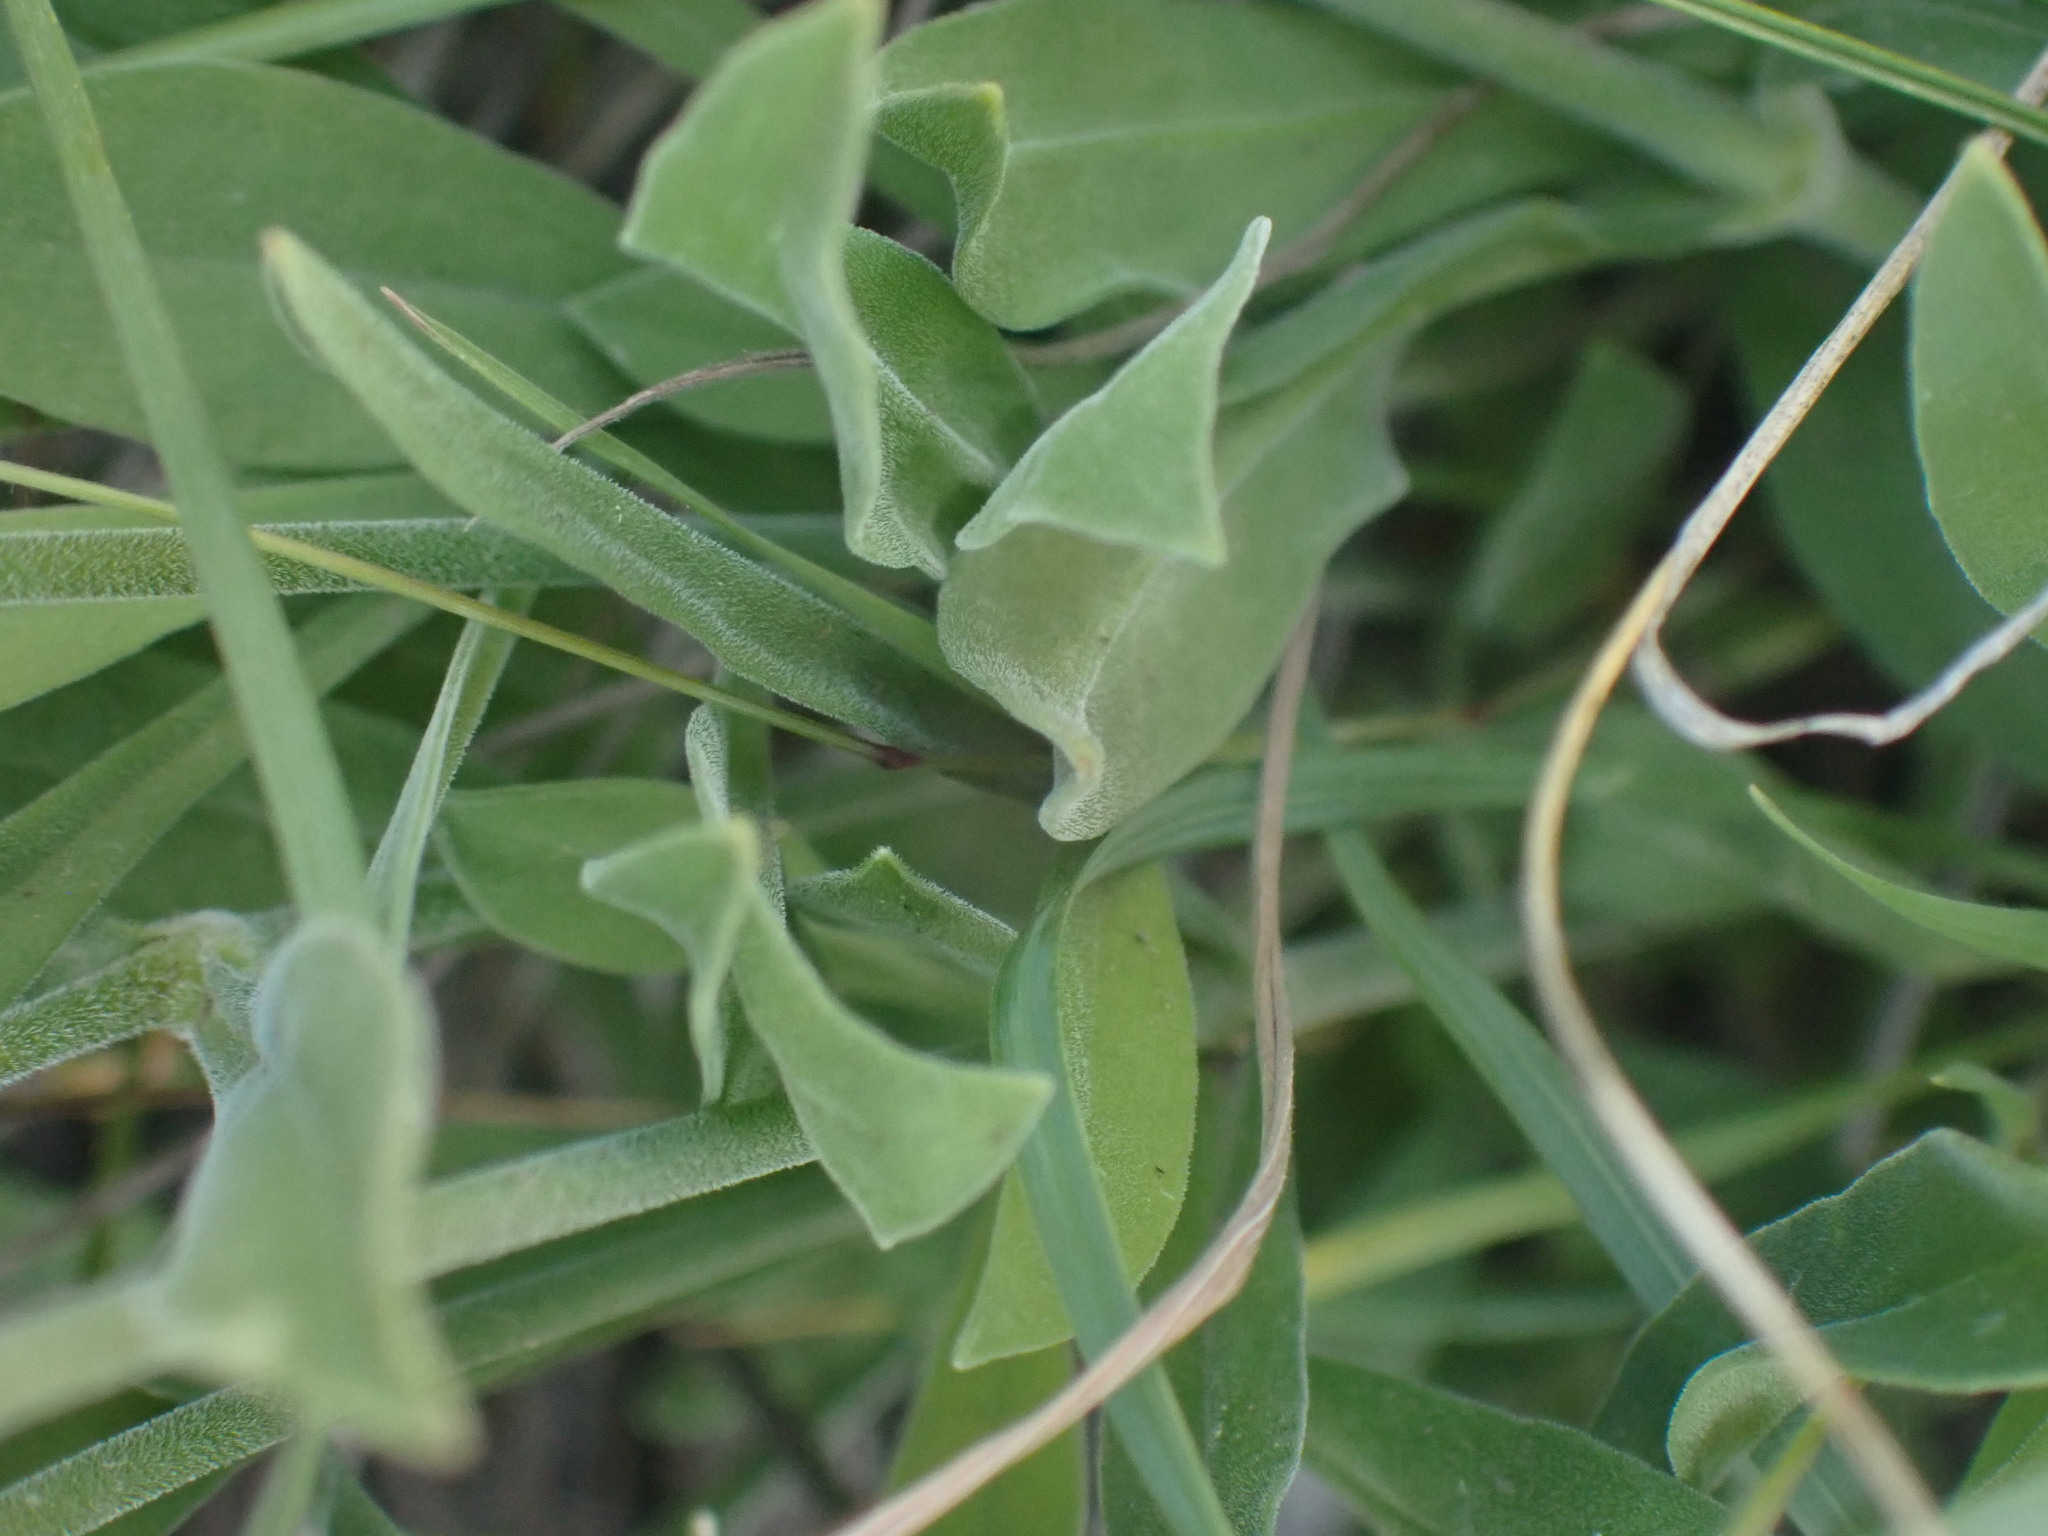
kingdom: Plantae
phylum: Tracheophyta
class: Magnoliopsida
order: Caryophyllales
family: Caryophyllaceae
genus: Silene
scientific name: Silene douglasii
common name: Douglas's catchfly
